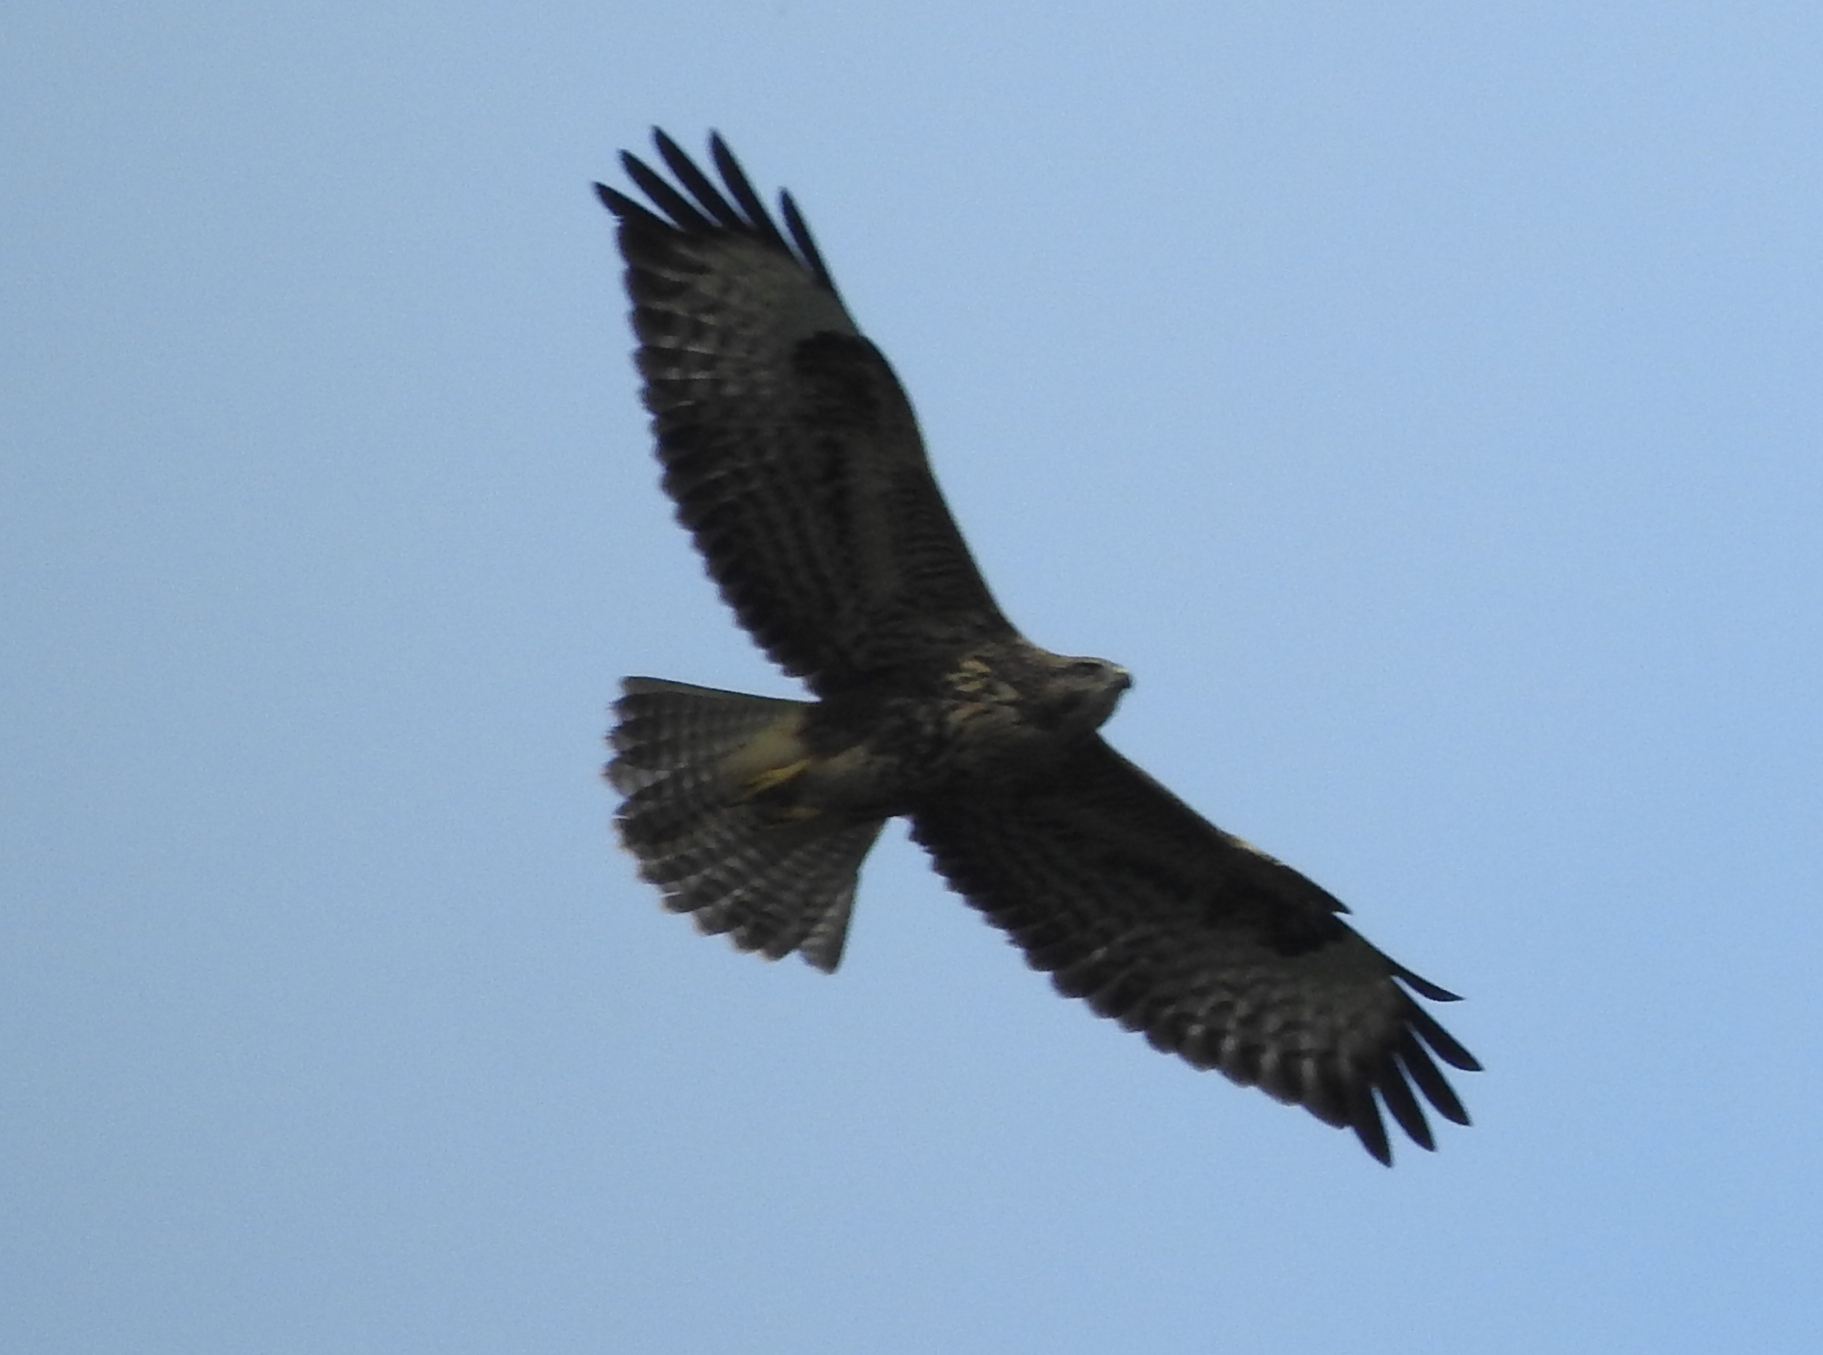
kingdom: Animalia
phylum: Chordata
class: Aves
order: Accipitriformes
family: Accipitridae
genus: Buteo
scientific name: Buteo buteo
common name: Common buzzard
